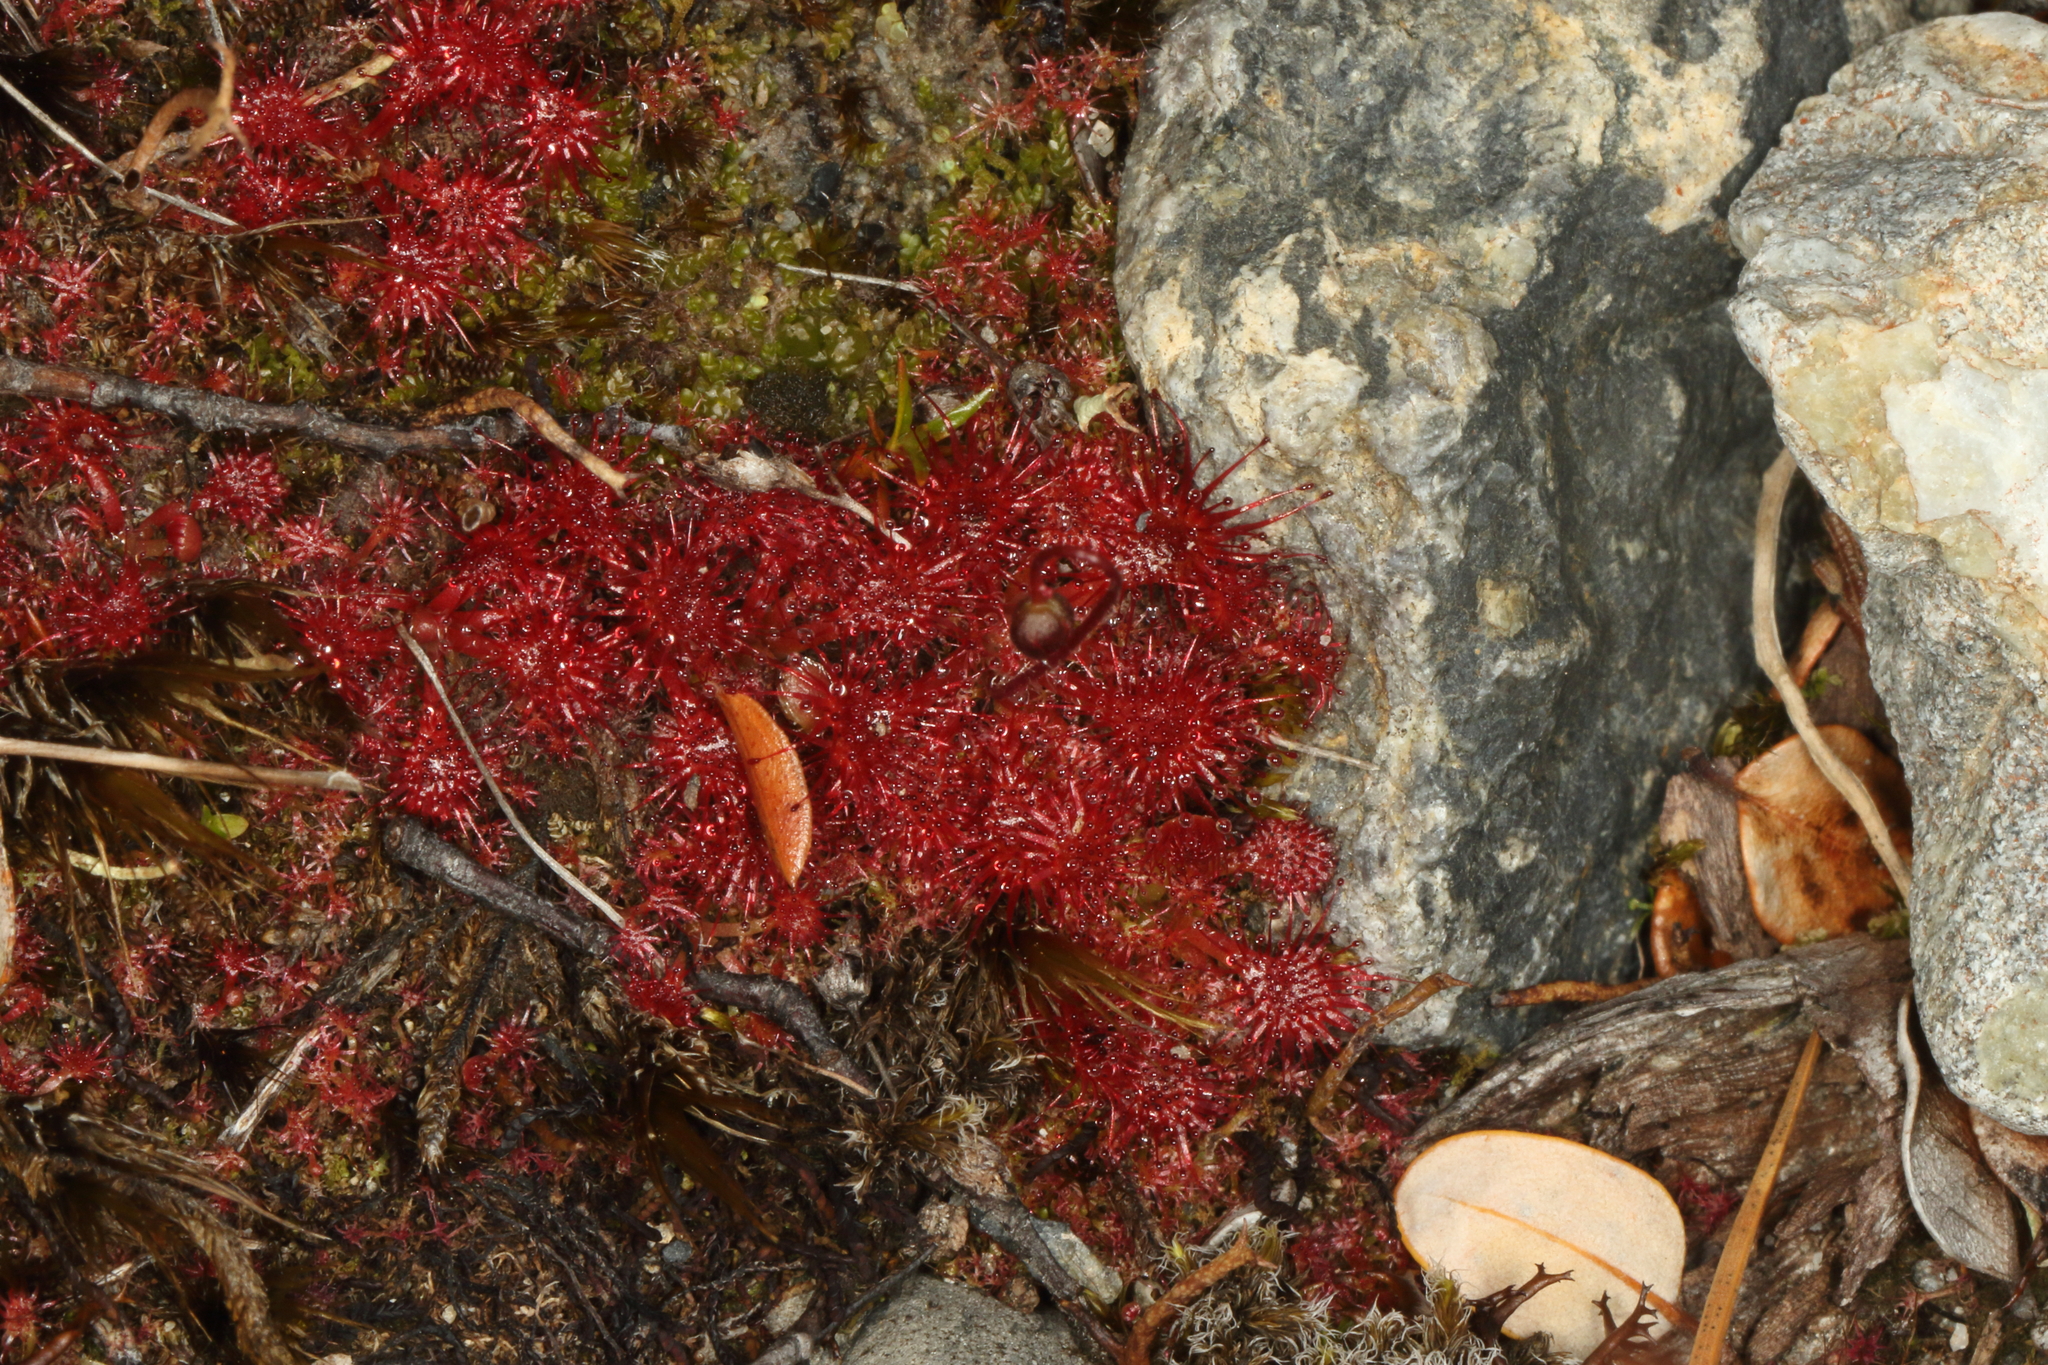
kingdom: Plantae
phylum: Tracheophyta
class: Magnoliopsida
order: Caryophyllales
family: Droseraceae
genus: Drosera
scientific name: Drosera spatulata
